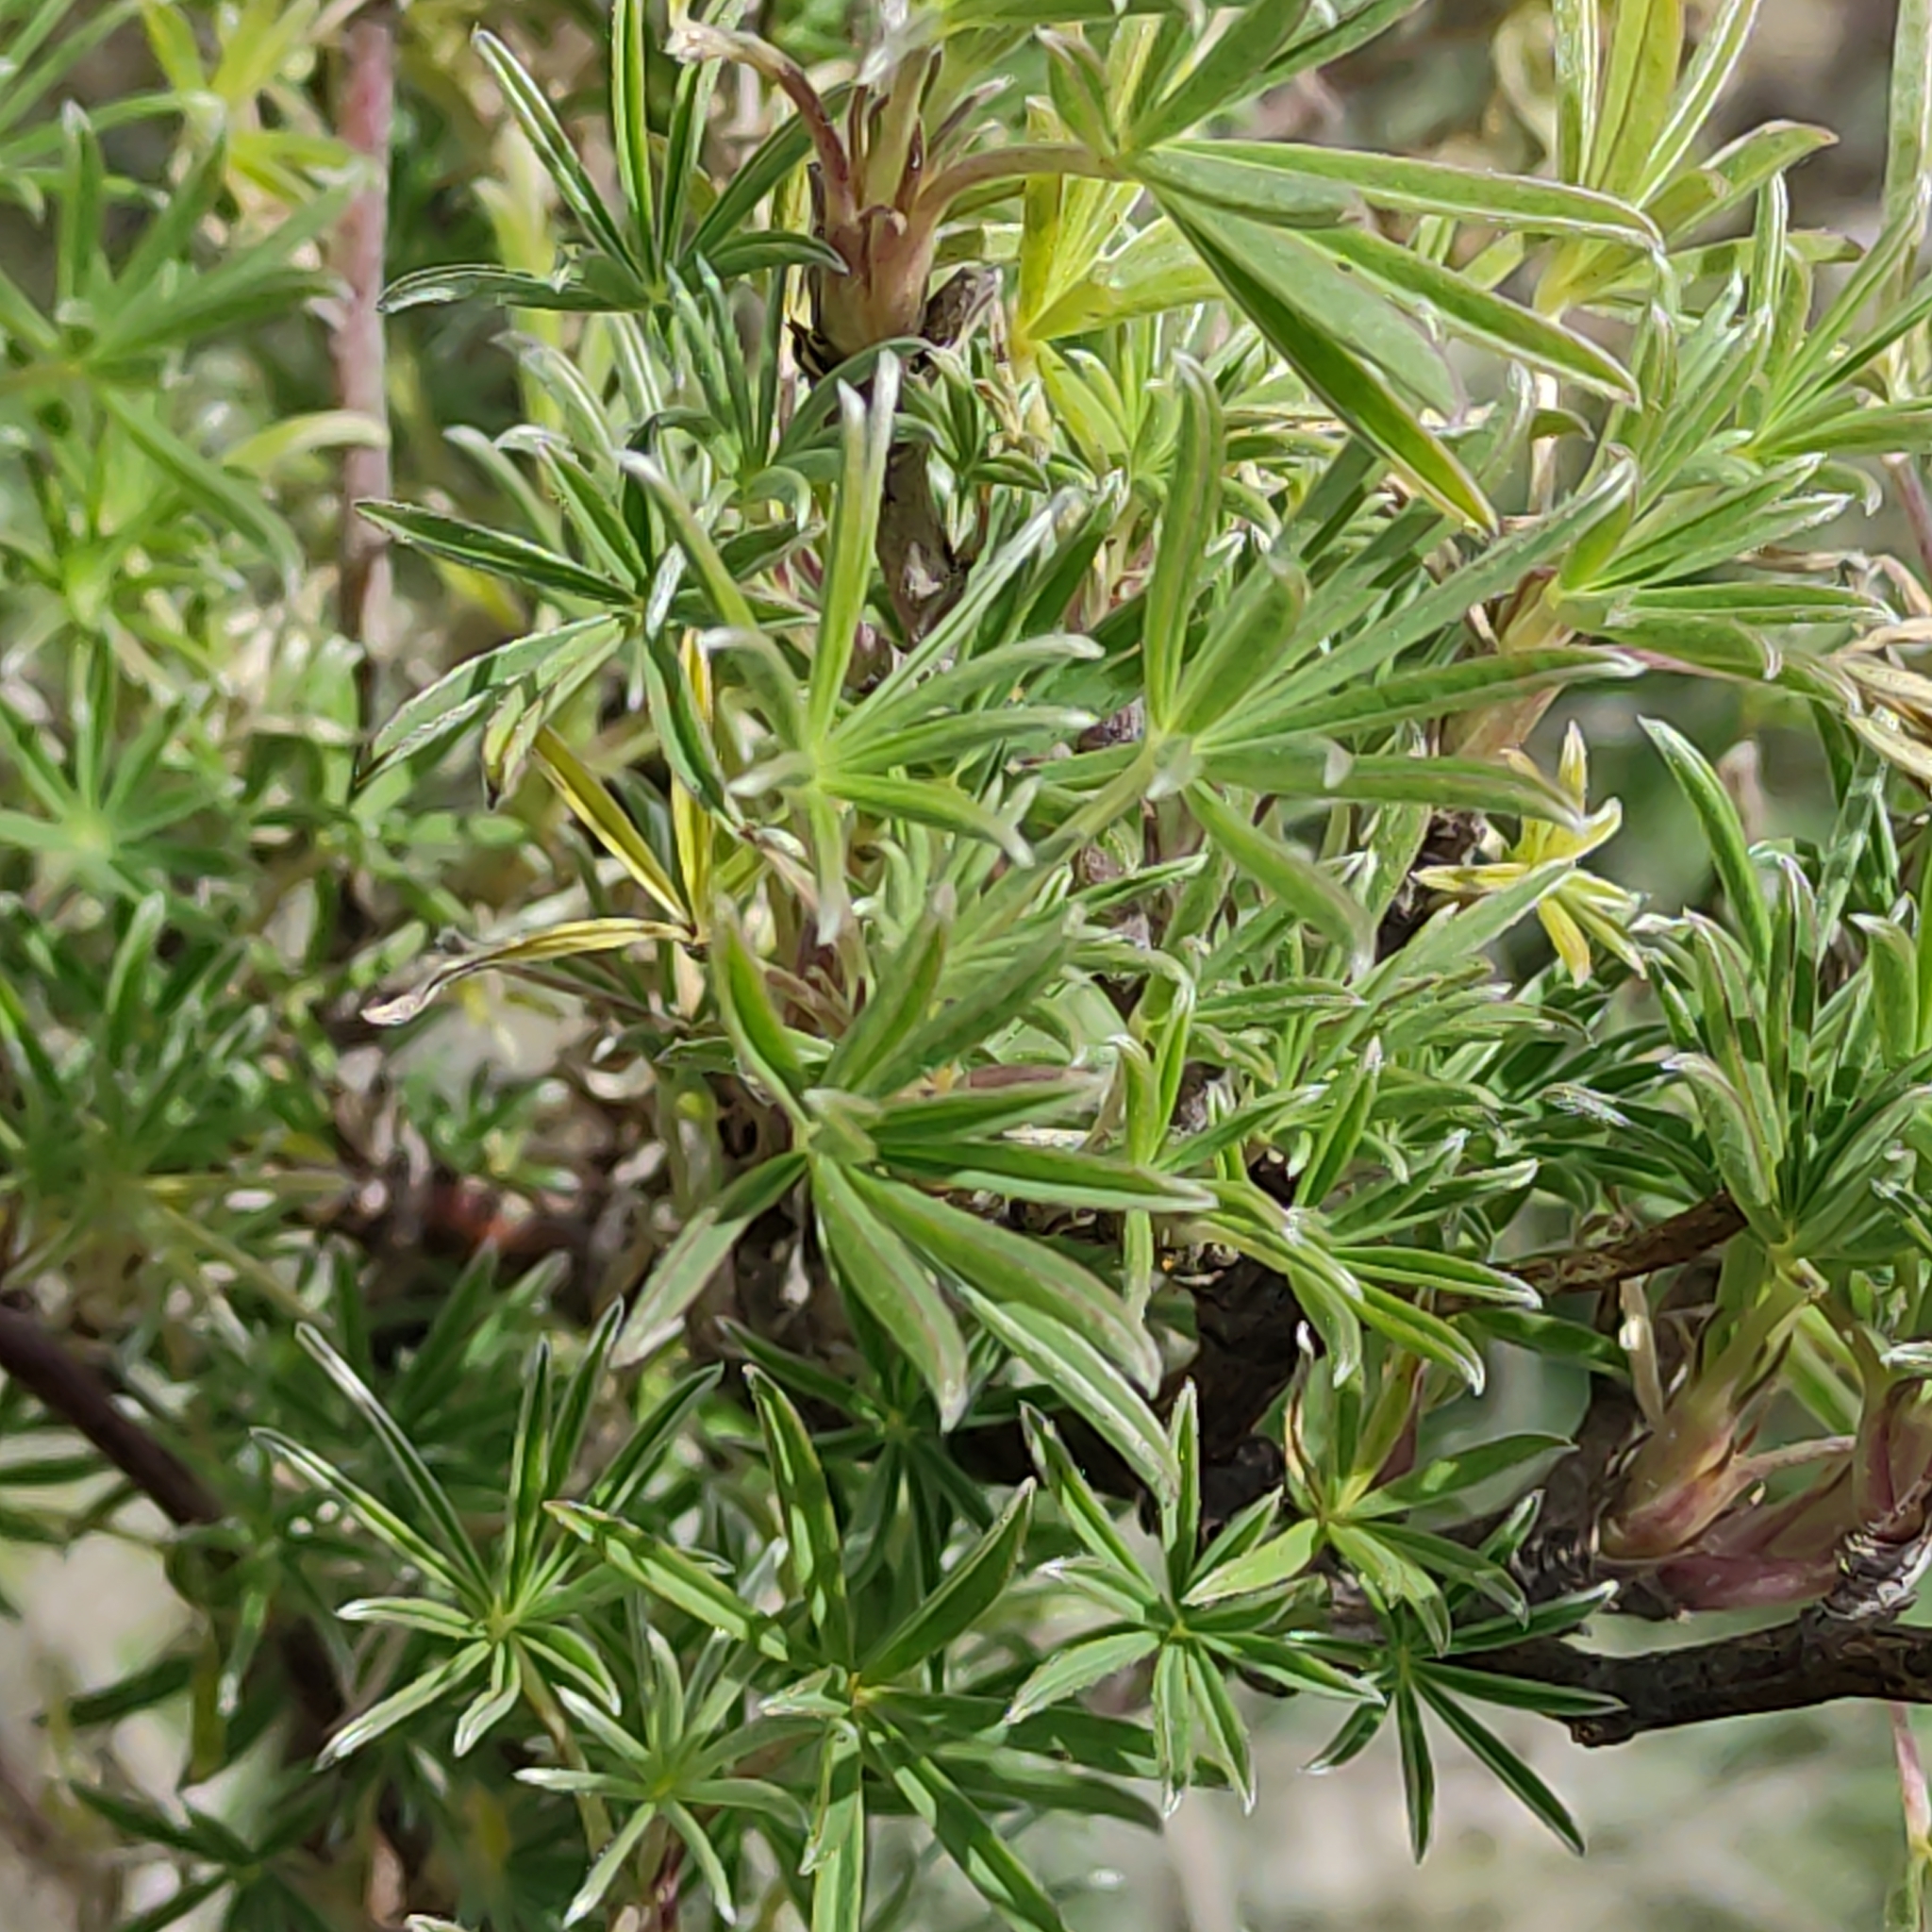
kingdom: Plantae
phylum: Tracheophyta
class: Magnoliopsida
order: Fabales
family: Fabaceae
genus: Lupinus
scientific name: Lupinus arboreus
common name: Yellow bush lupine
